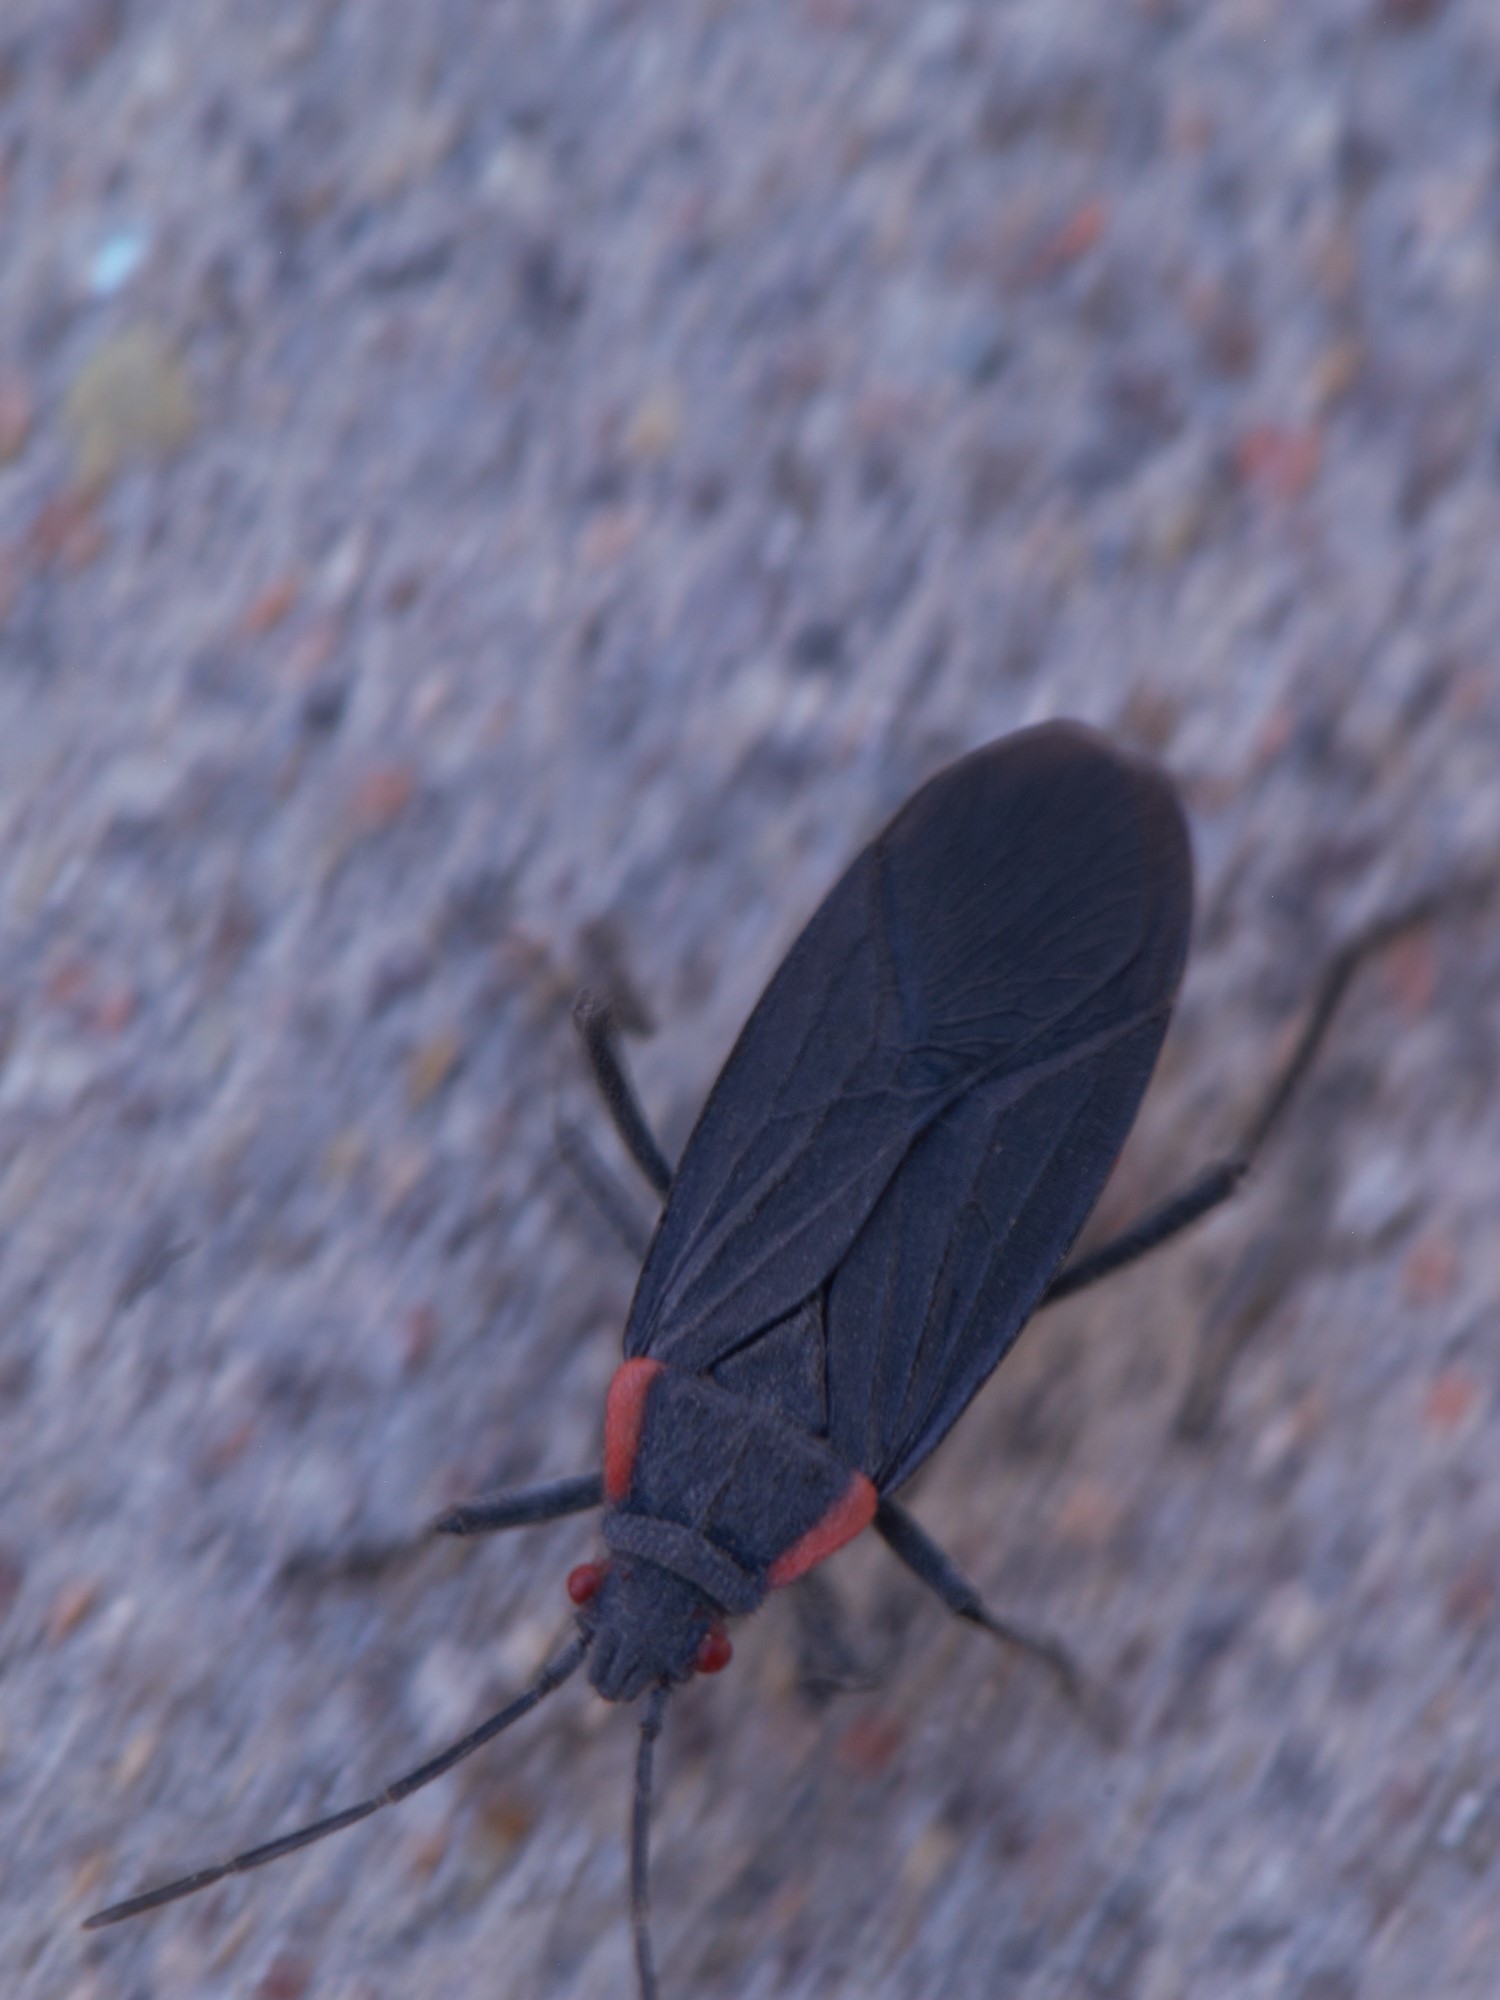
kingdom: Animalia
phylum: Arthropoda
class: Insecta
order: Hemiptera
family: Rhopalidae
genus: Jadera
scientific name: Jadera haematoloma
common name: Red-shouldered bug
